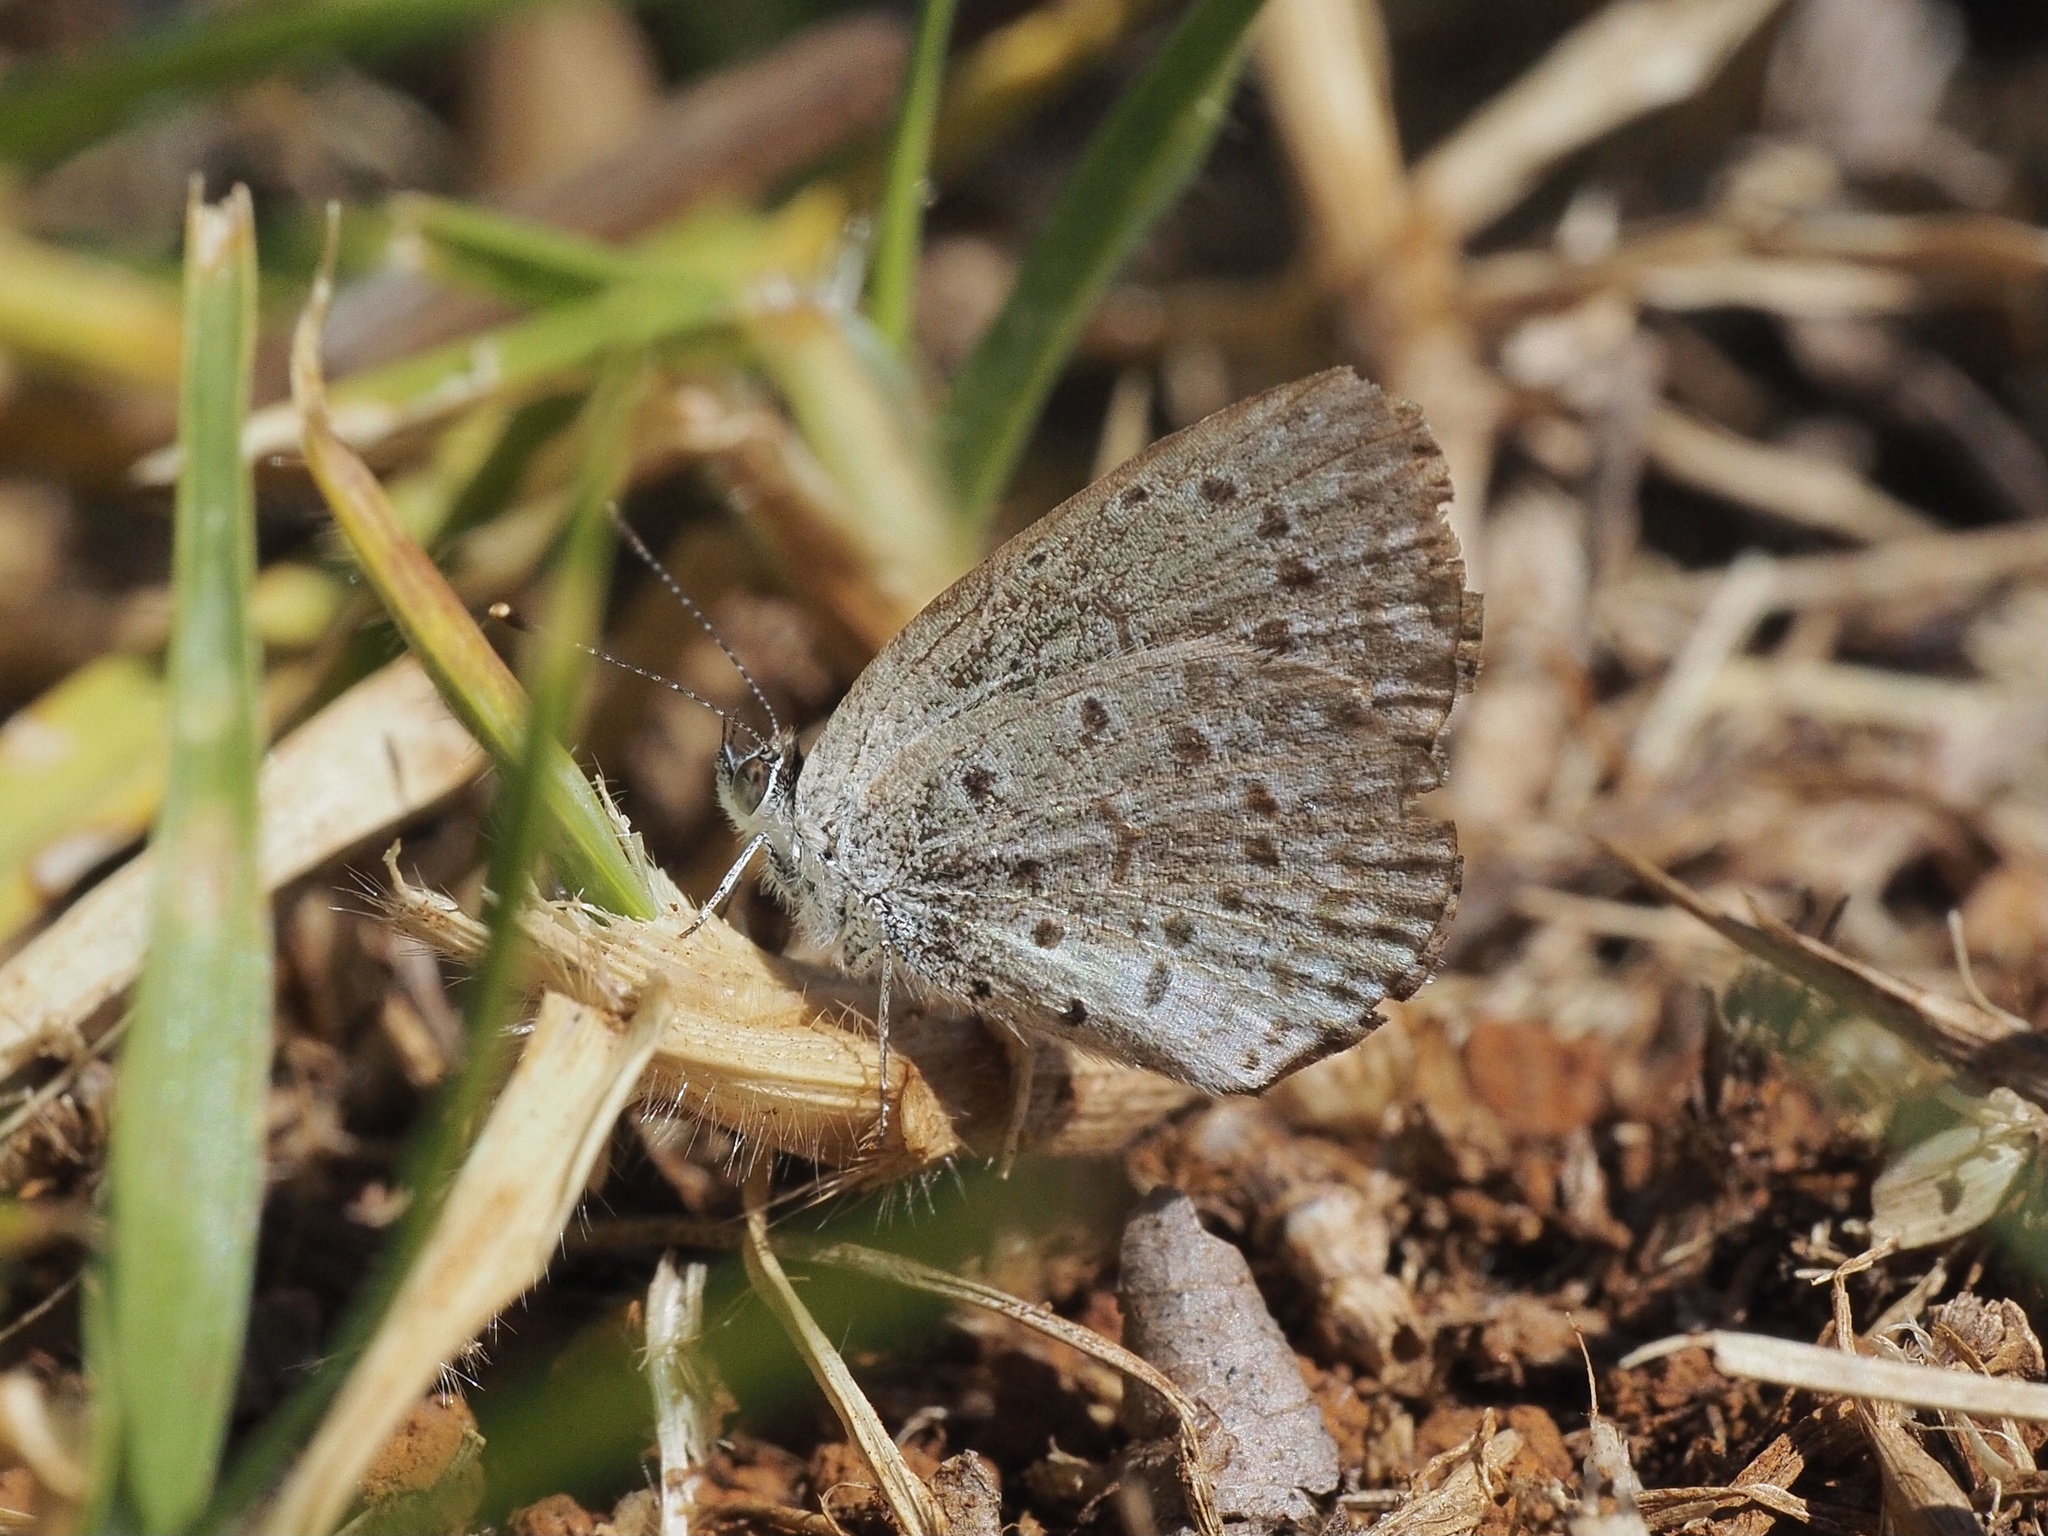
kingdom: Animalia
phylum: Arthropoda
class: Insecta
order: Lepidoptera
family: Lycaenidae
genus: Zizeeria
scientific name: Zizeeria knysna
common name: African grass blue
